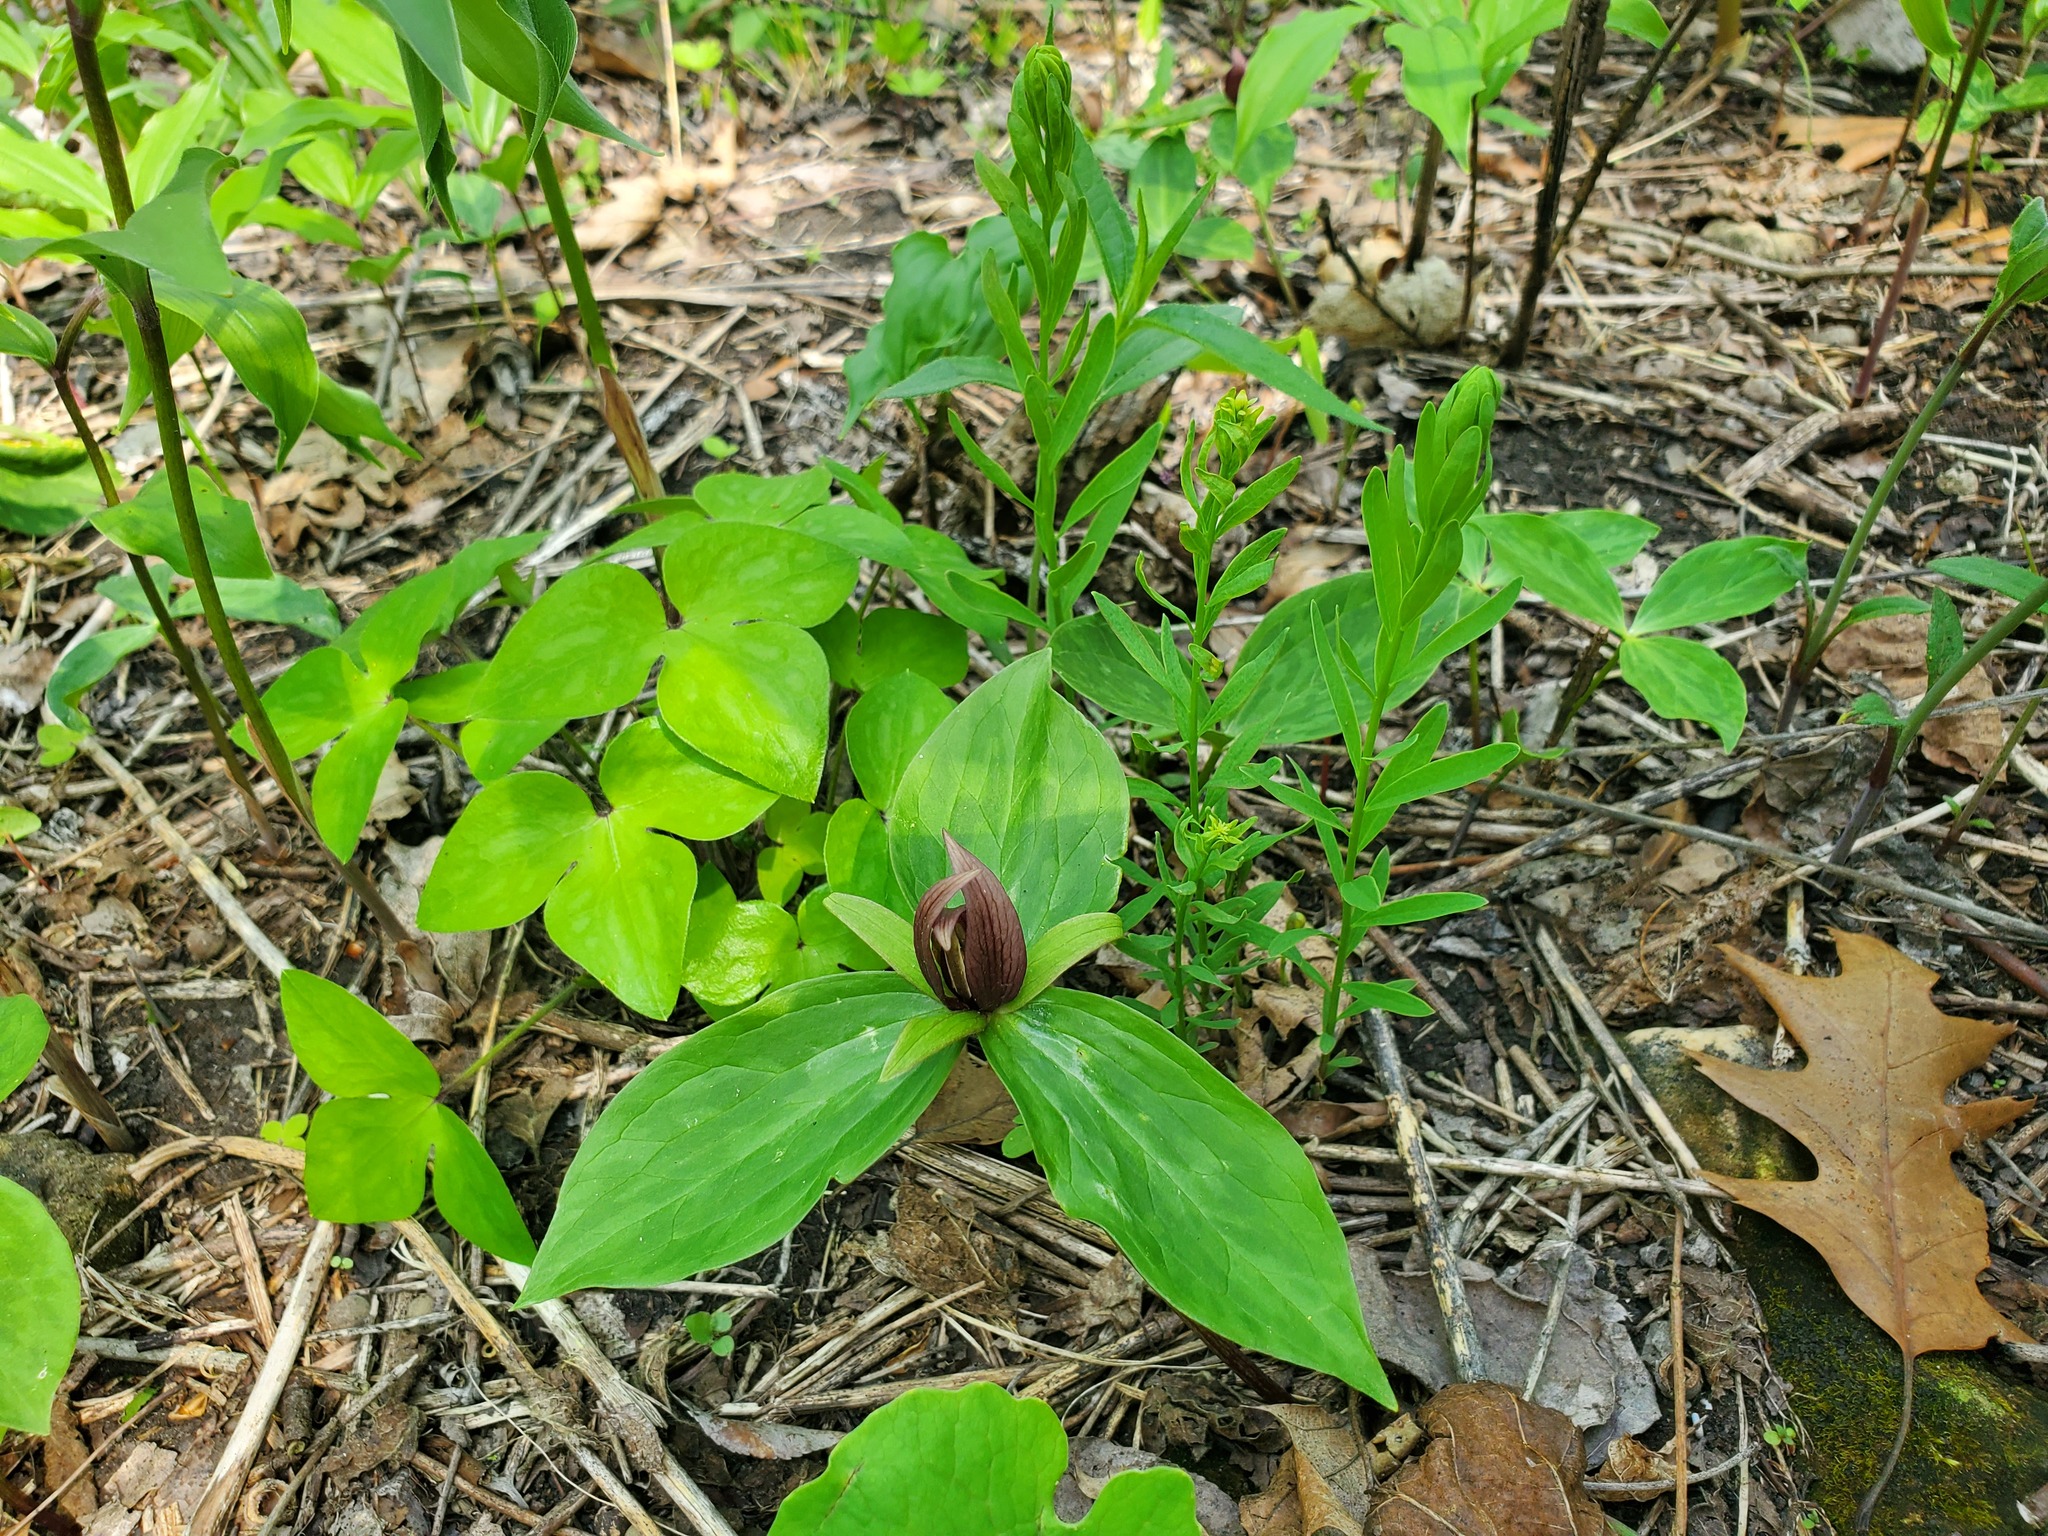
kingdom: Plantae
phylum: Tracheophyta
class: Magnoliopsida
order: Ranunculales
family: Ranunculaceae
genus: Hepatica
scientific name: Hepatica acutiloba
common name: Sharp-lobed hepatica
